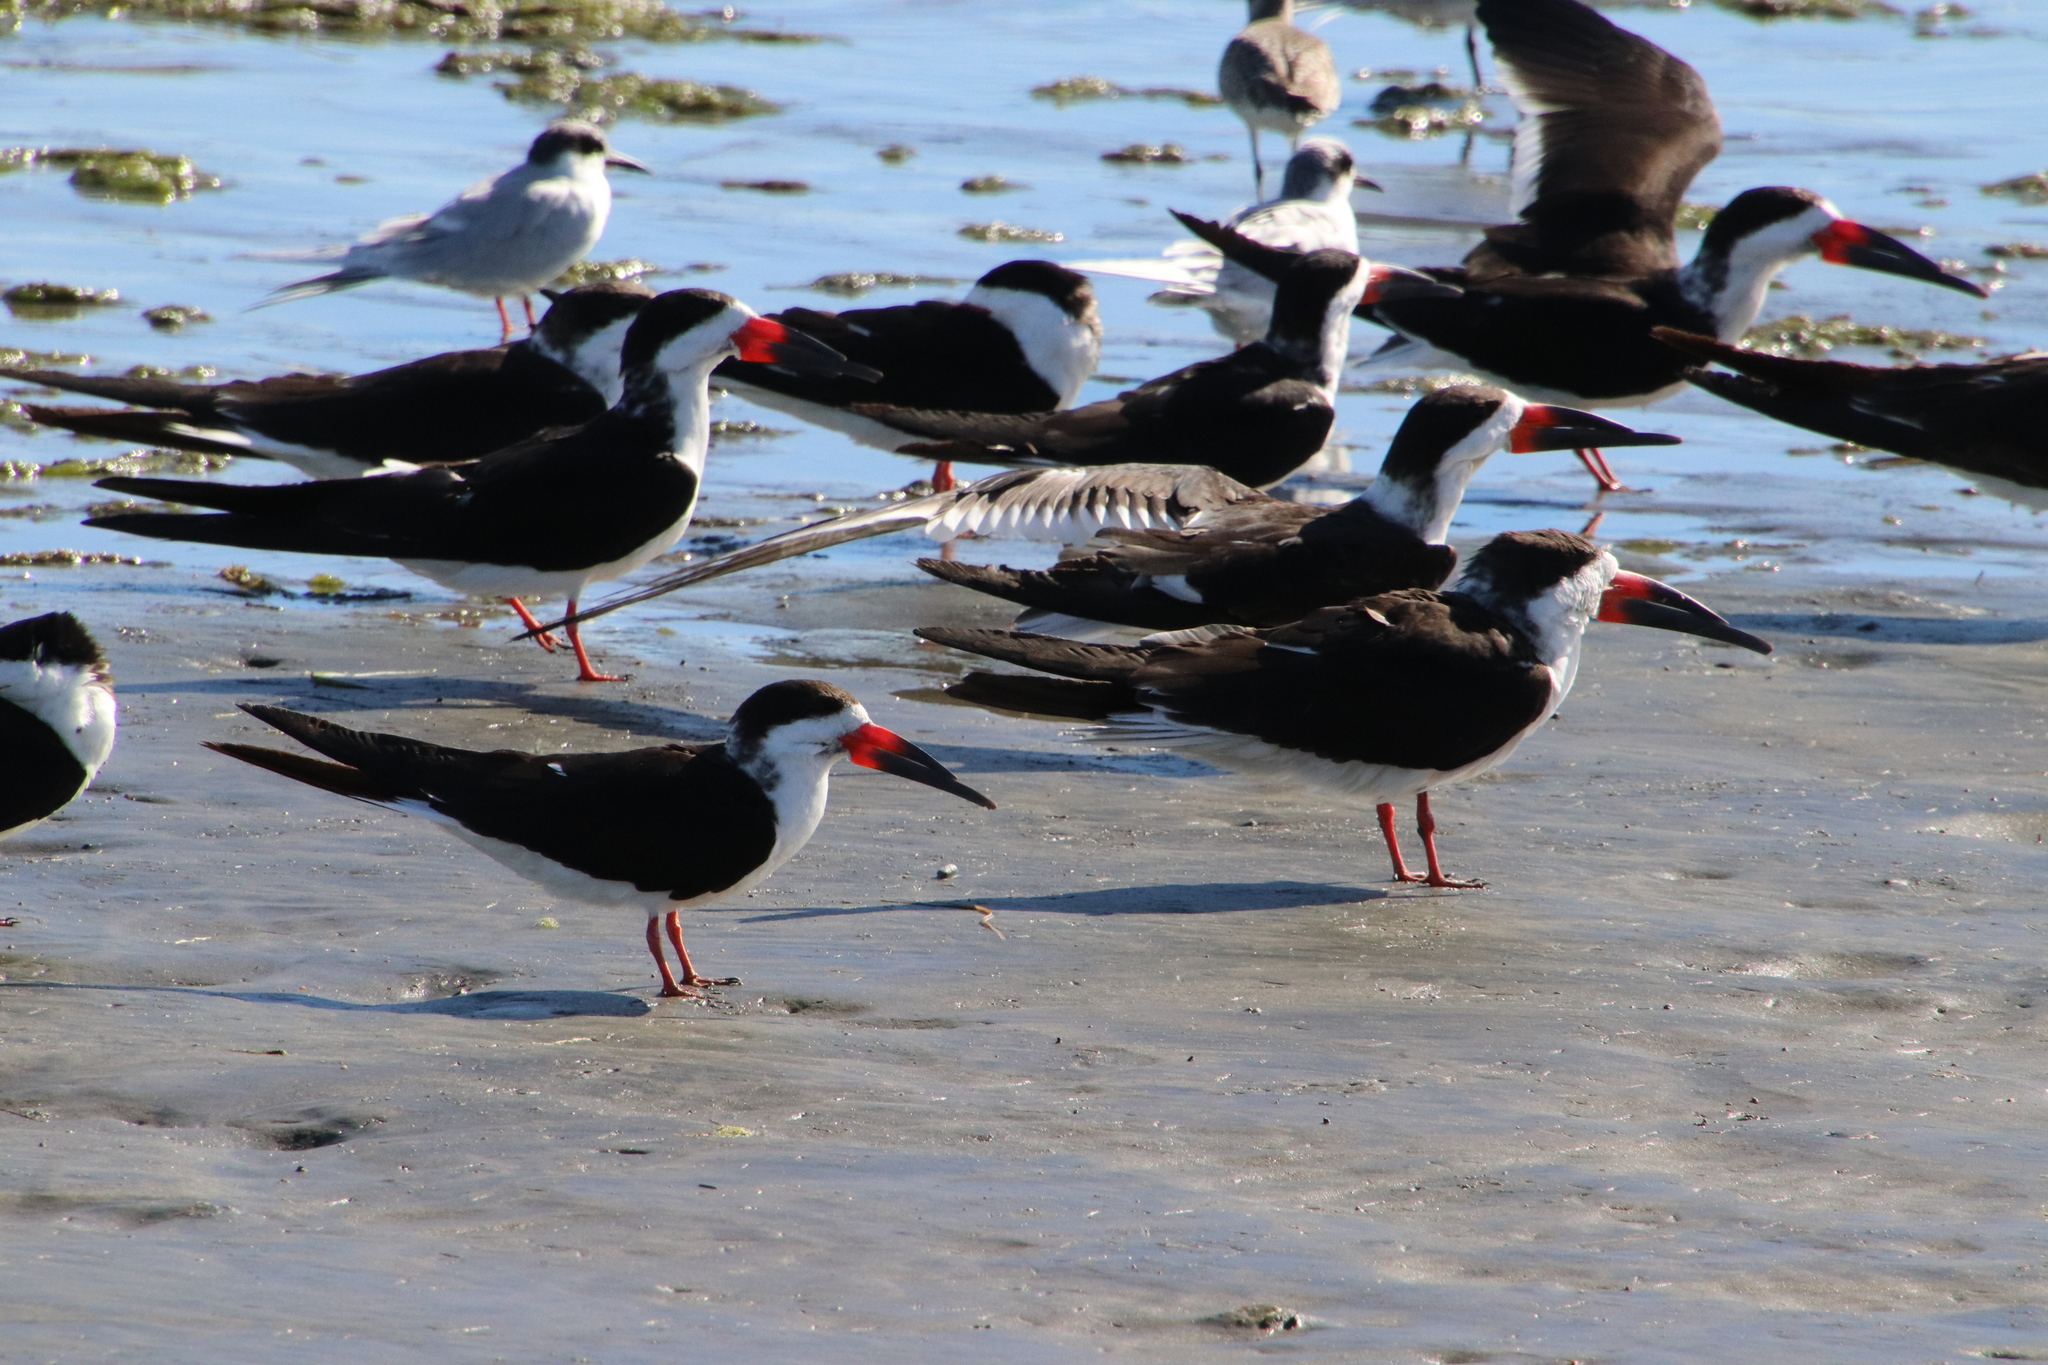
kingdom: Animalia
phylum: Chordata
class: Aves
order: Charadriiformes
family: Laridae
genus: Rynchops
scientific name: Rynchops niger
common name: Black skimmer
